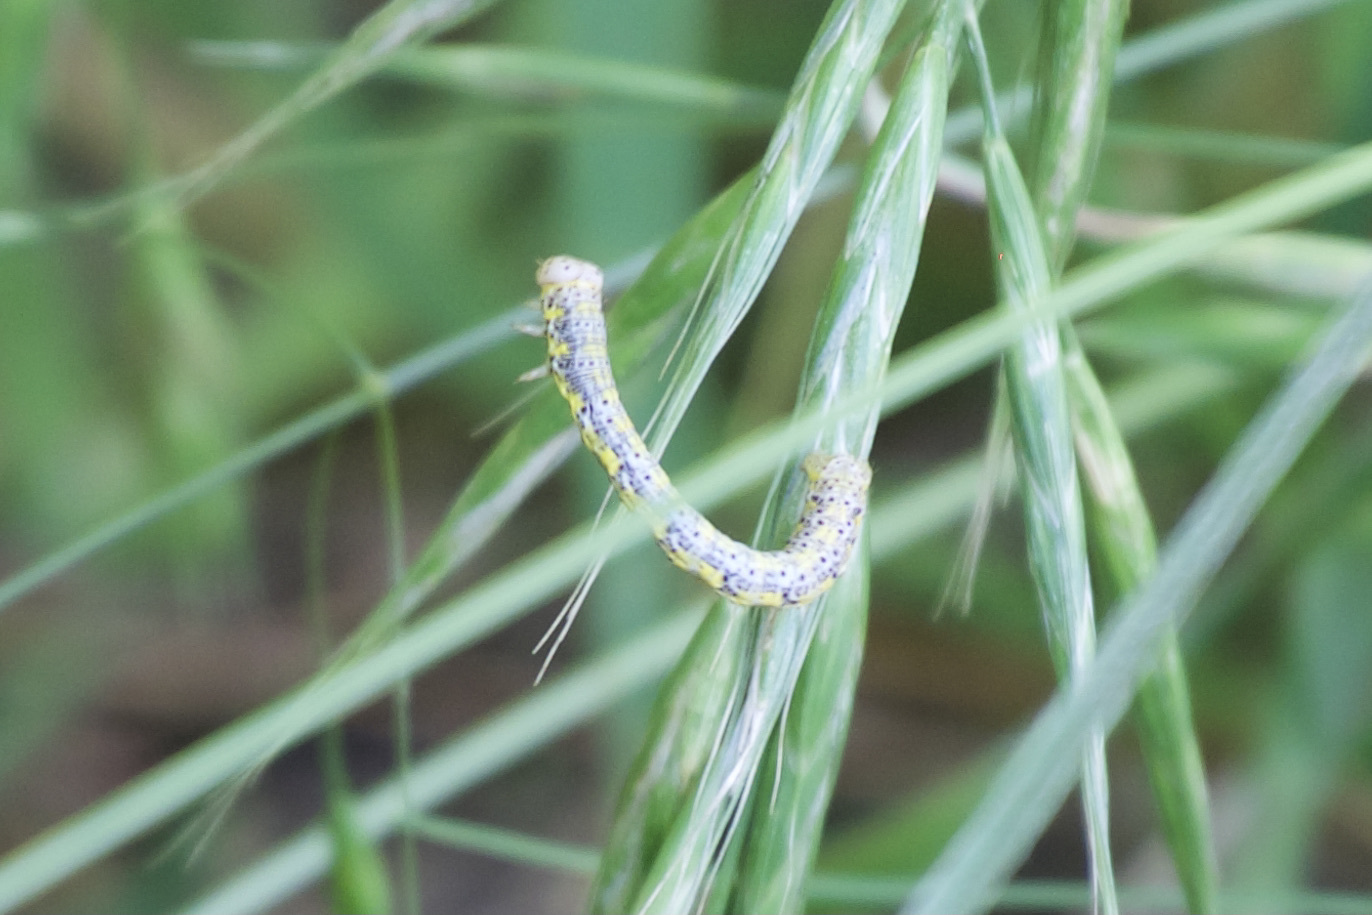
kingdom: Animalia
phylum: Arthropoda
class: Insecta
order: Lepidoptera
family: Geometridae
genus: Isturgia
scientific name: Isturgia dislocaria
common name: Pale-viened enconista
